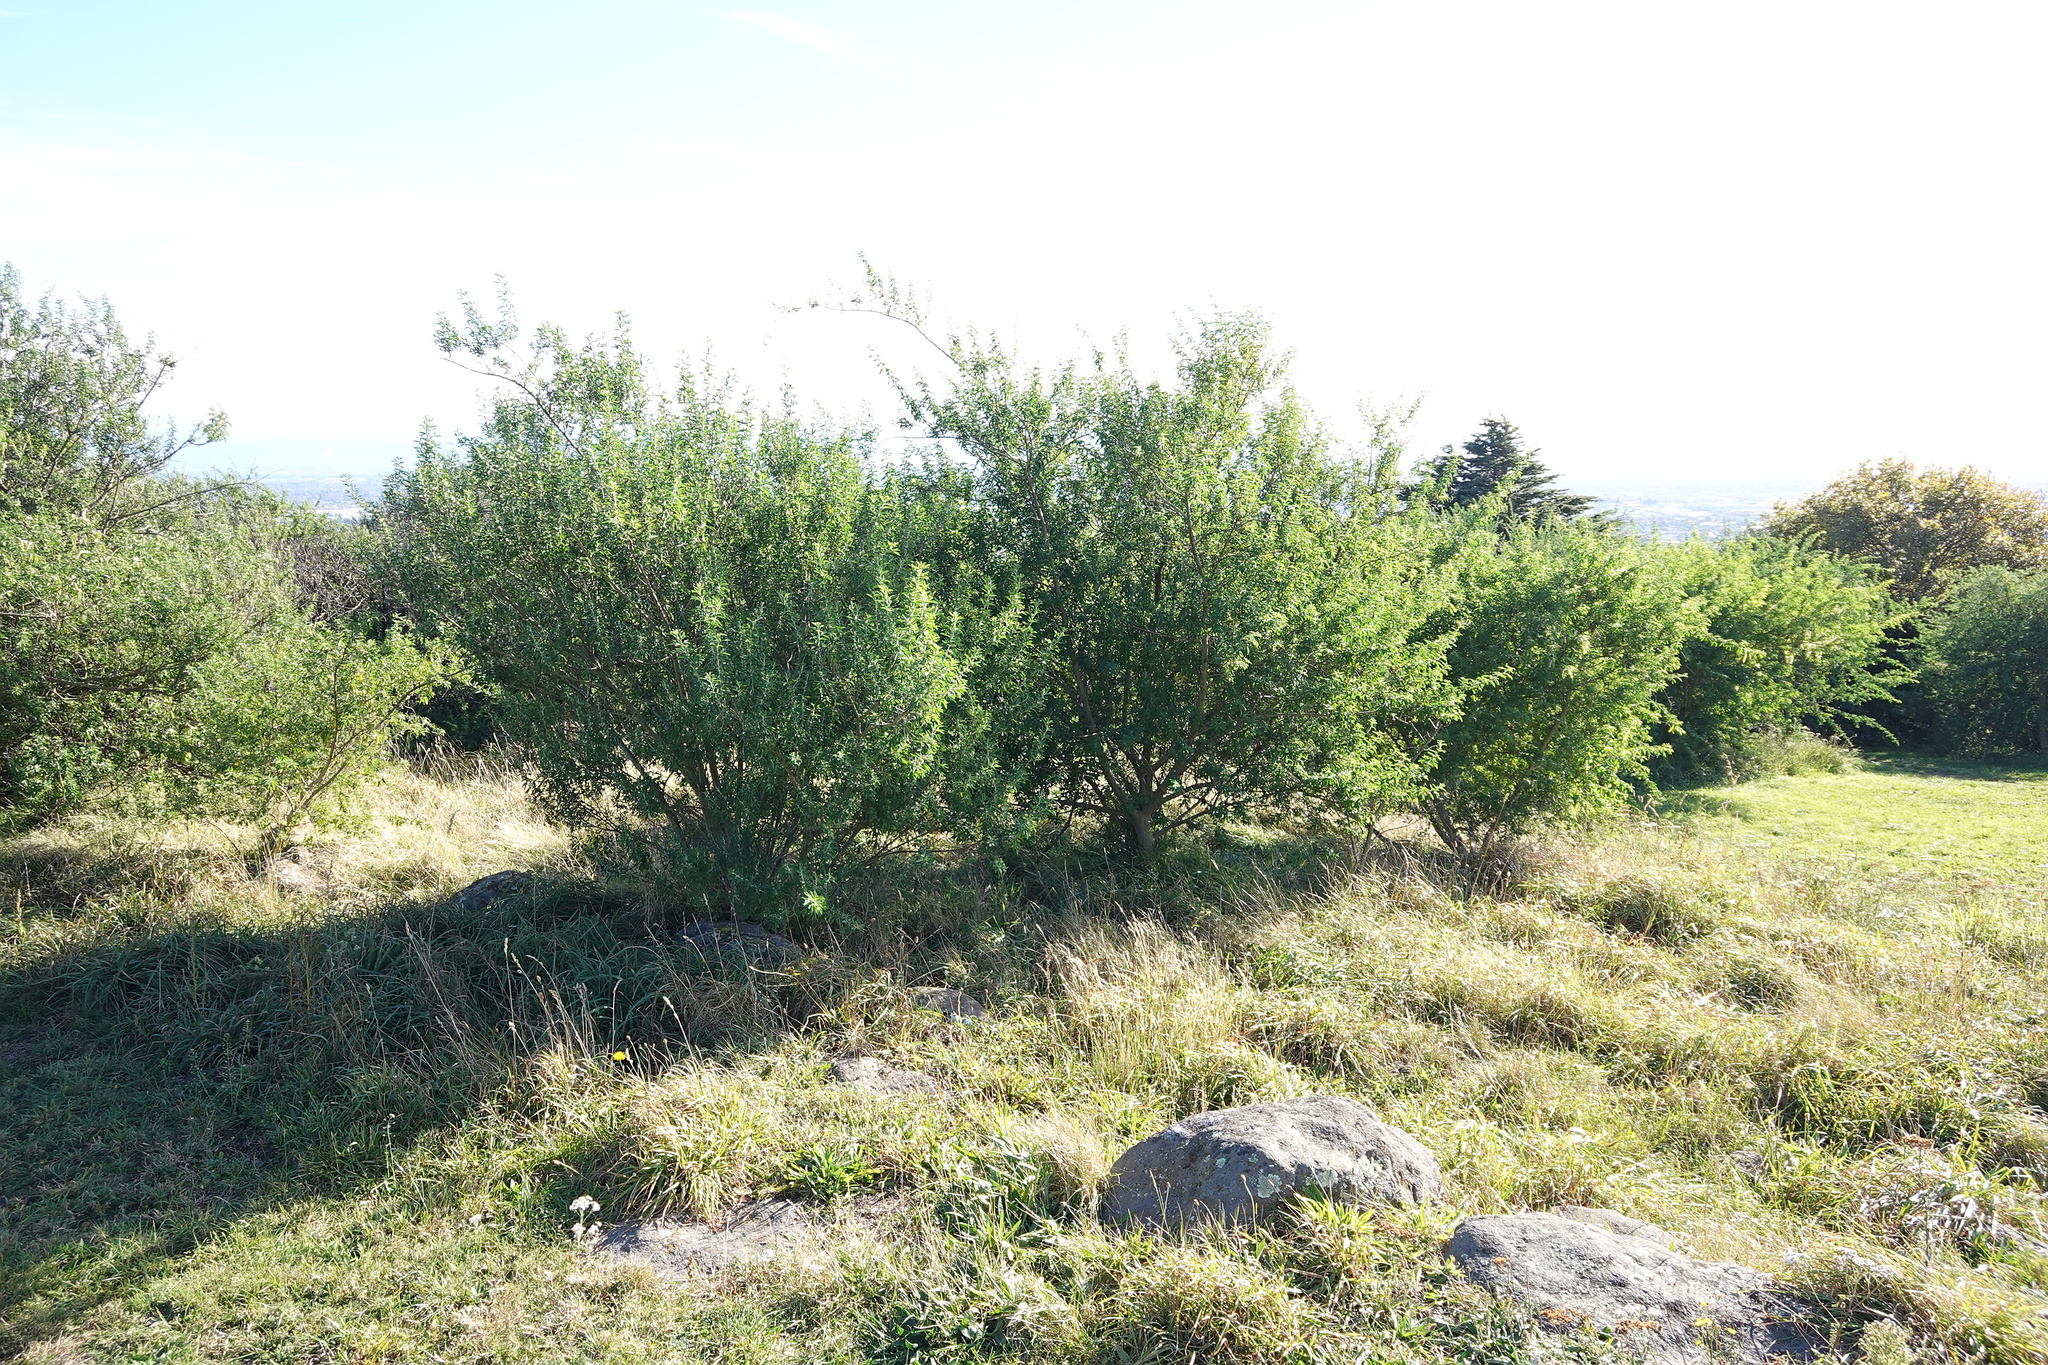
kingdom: Plantae
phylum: Tracheophyta
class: Magnoliopsida
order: Fabales
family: Fabaceae
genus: Chamaecytisus
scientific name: Chamaecytisus prolifer
